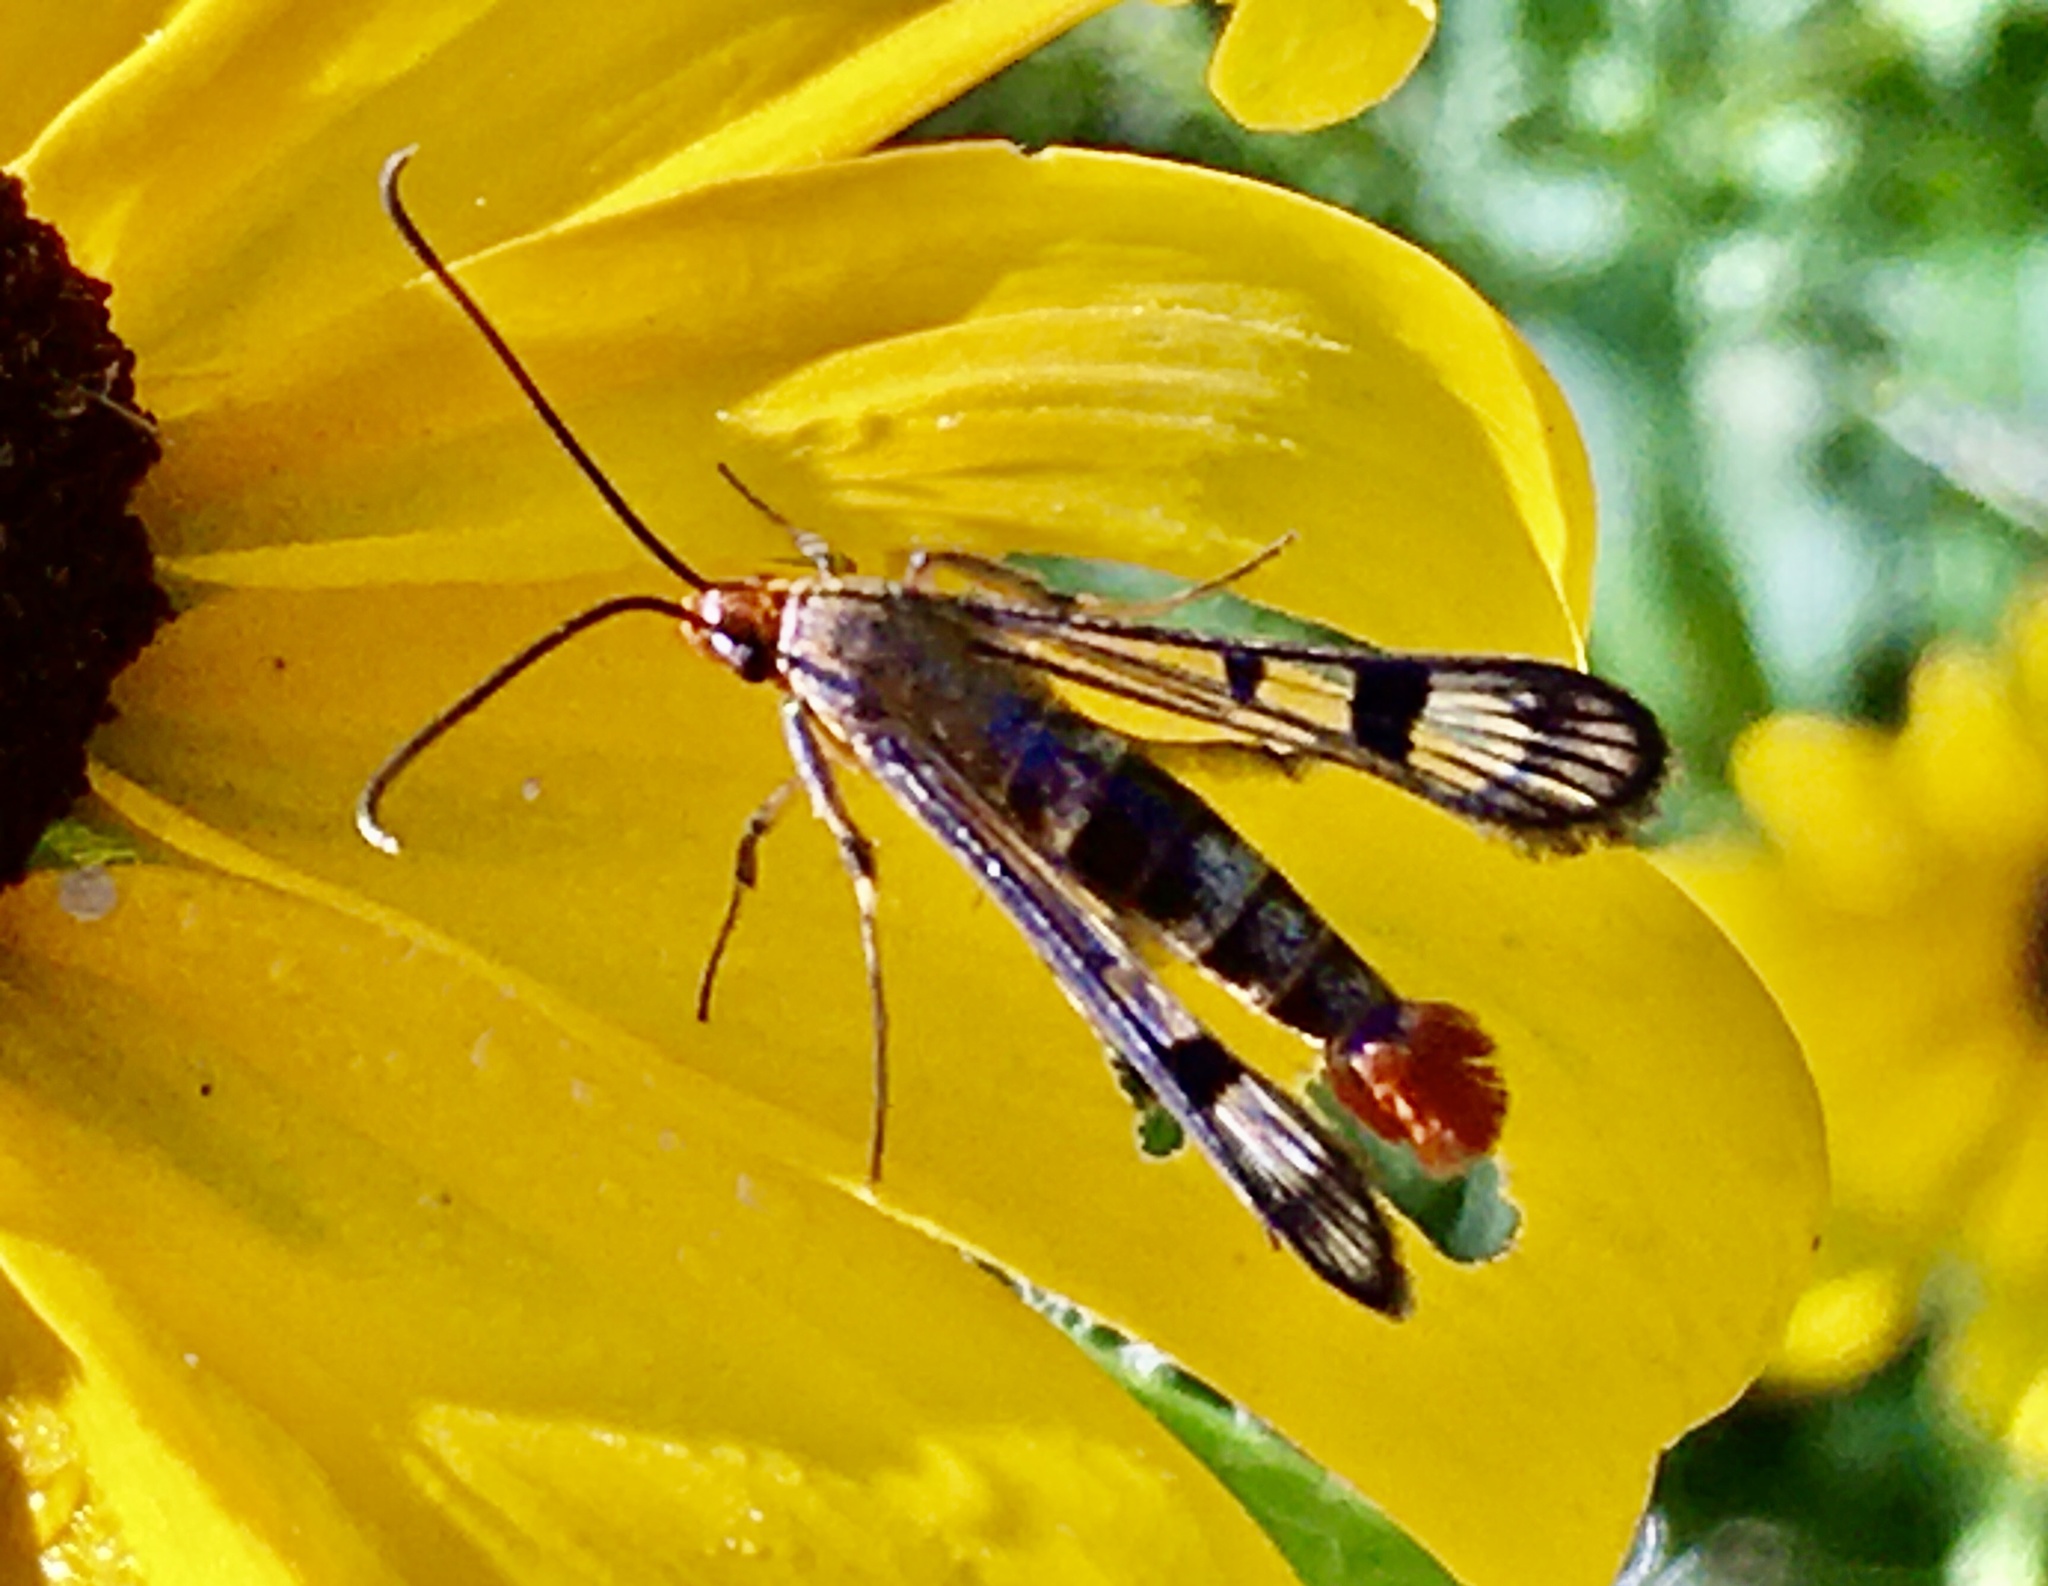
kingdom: Animalia
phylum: Arthropoda
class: Insecta
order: Lepidoptera
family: Sesiidae
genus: Synanthedon
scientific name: Synanthedon acerni
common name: Maple callus borer moth
